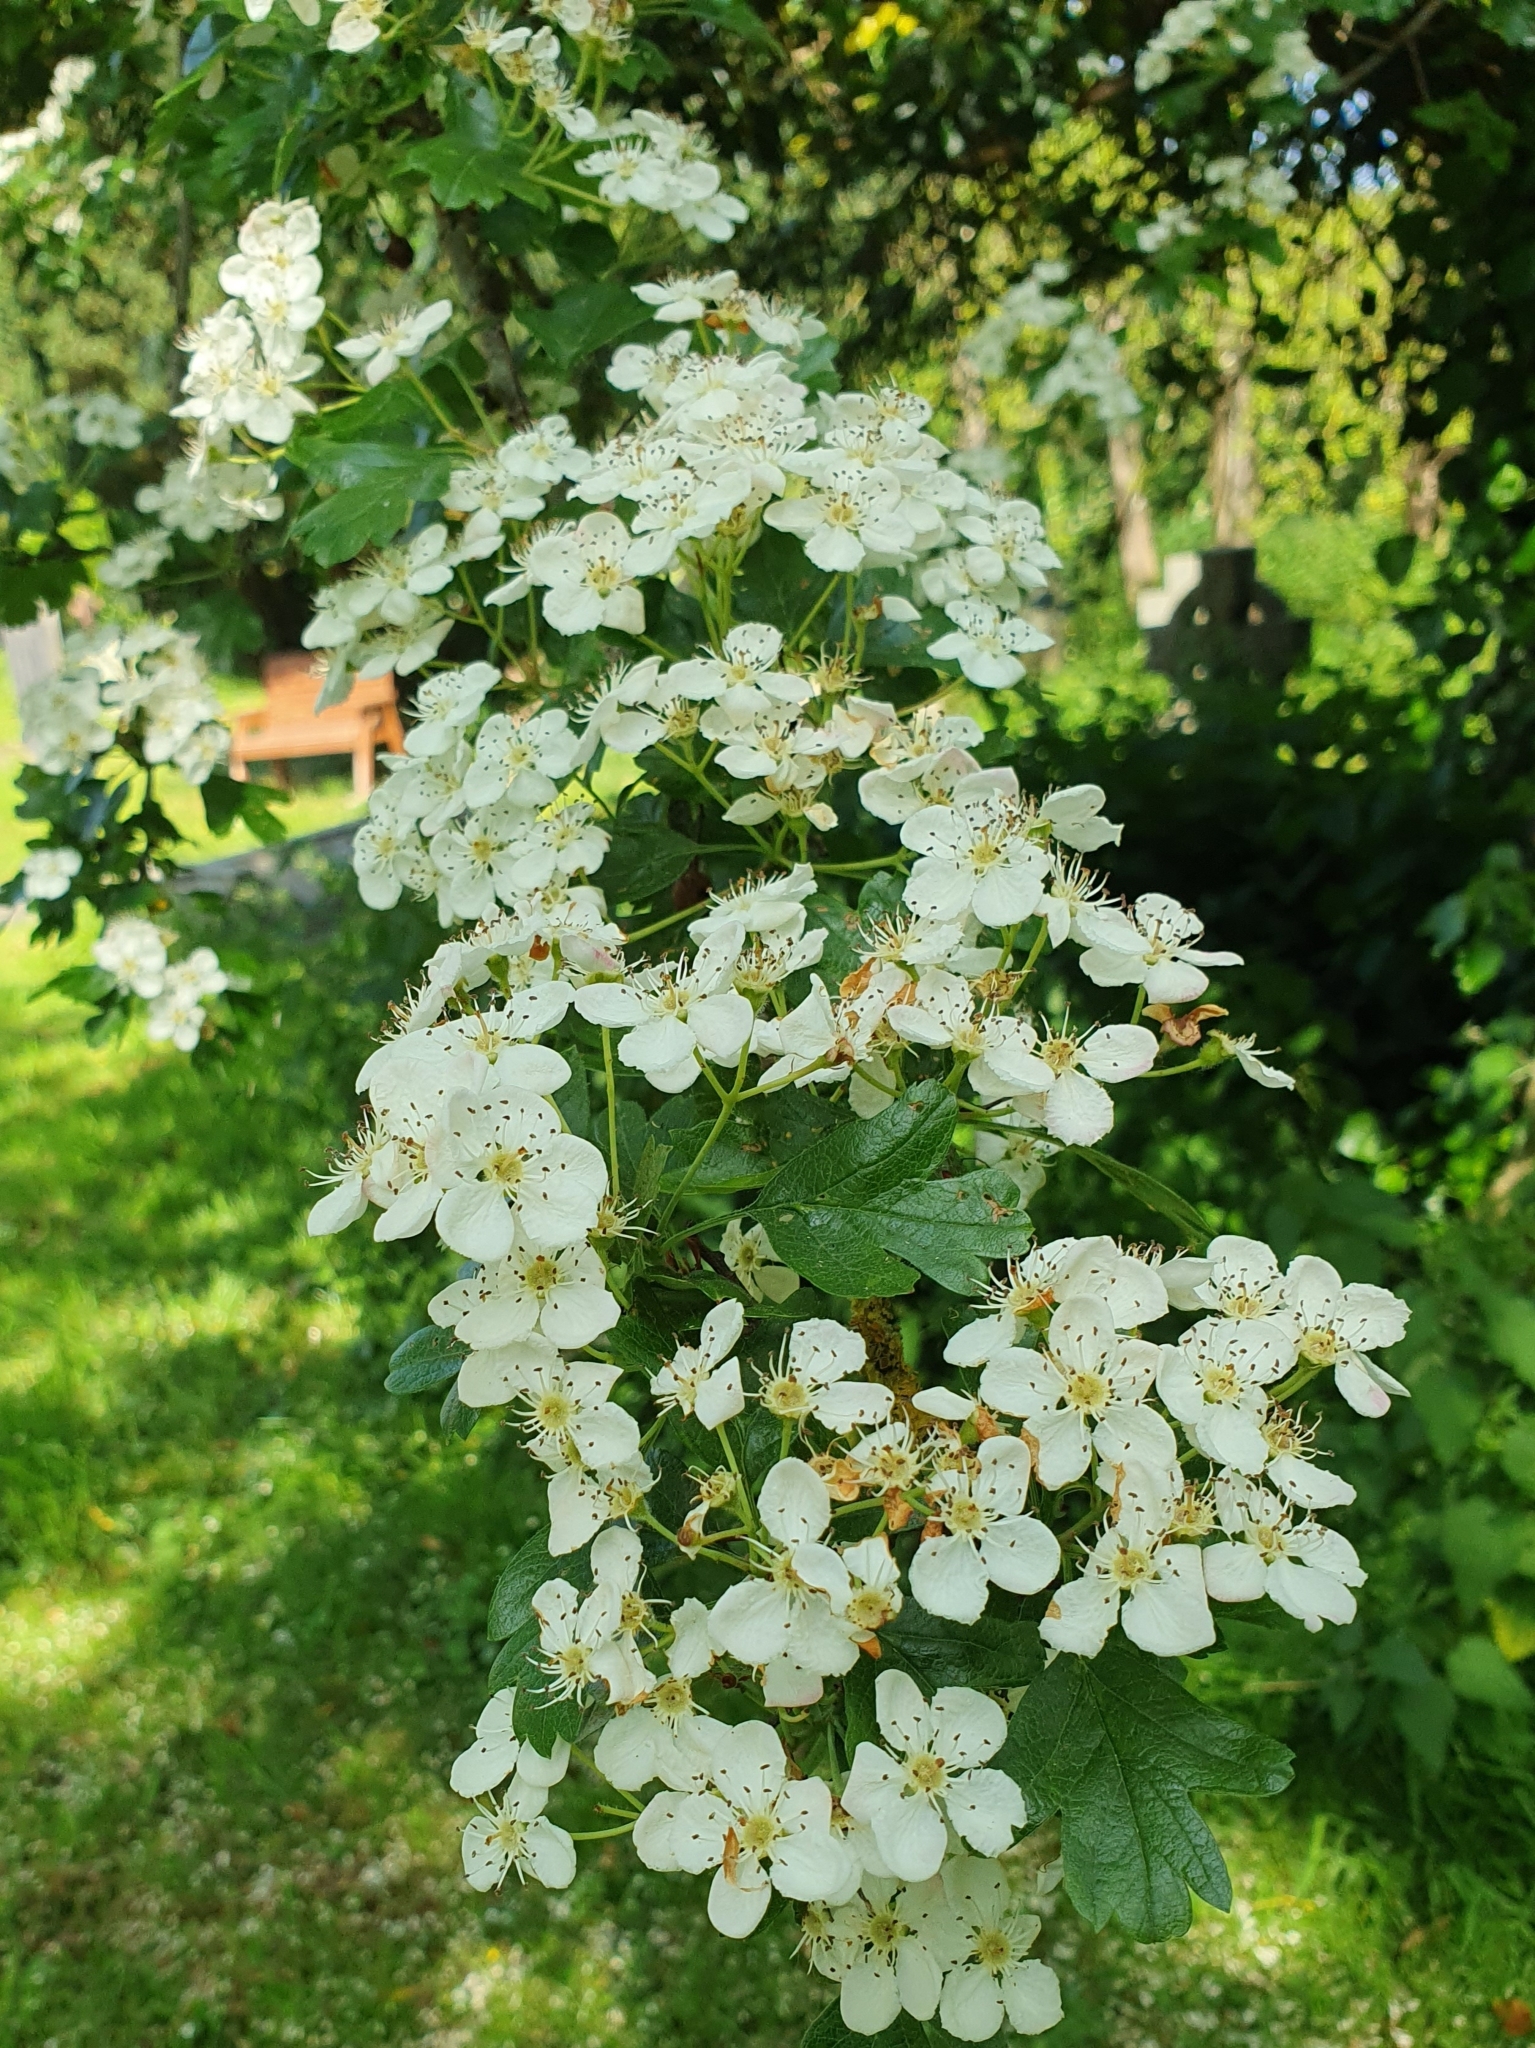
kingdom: Plantae
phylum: Tracheophyta
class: Magnoliopsida
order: Rosales
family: Rosaceae
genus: Crataegus
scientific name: Crataegus monogyna
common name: Hawthorn
